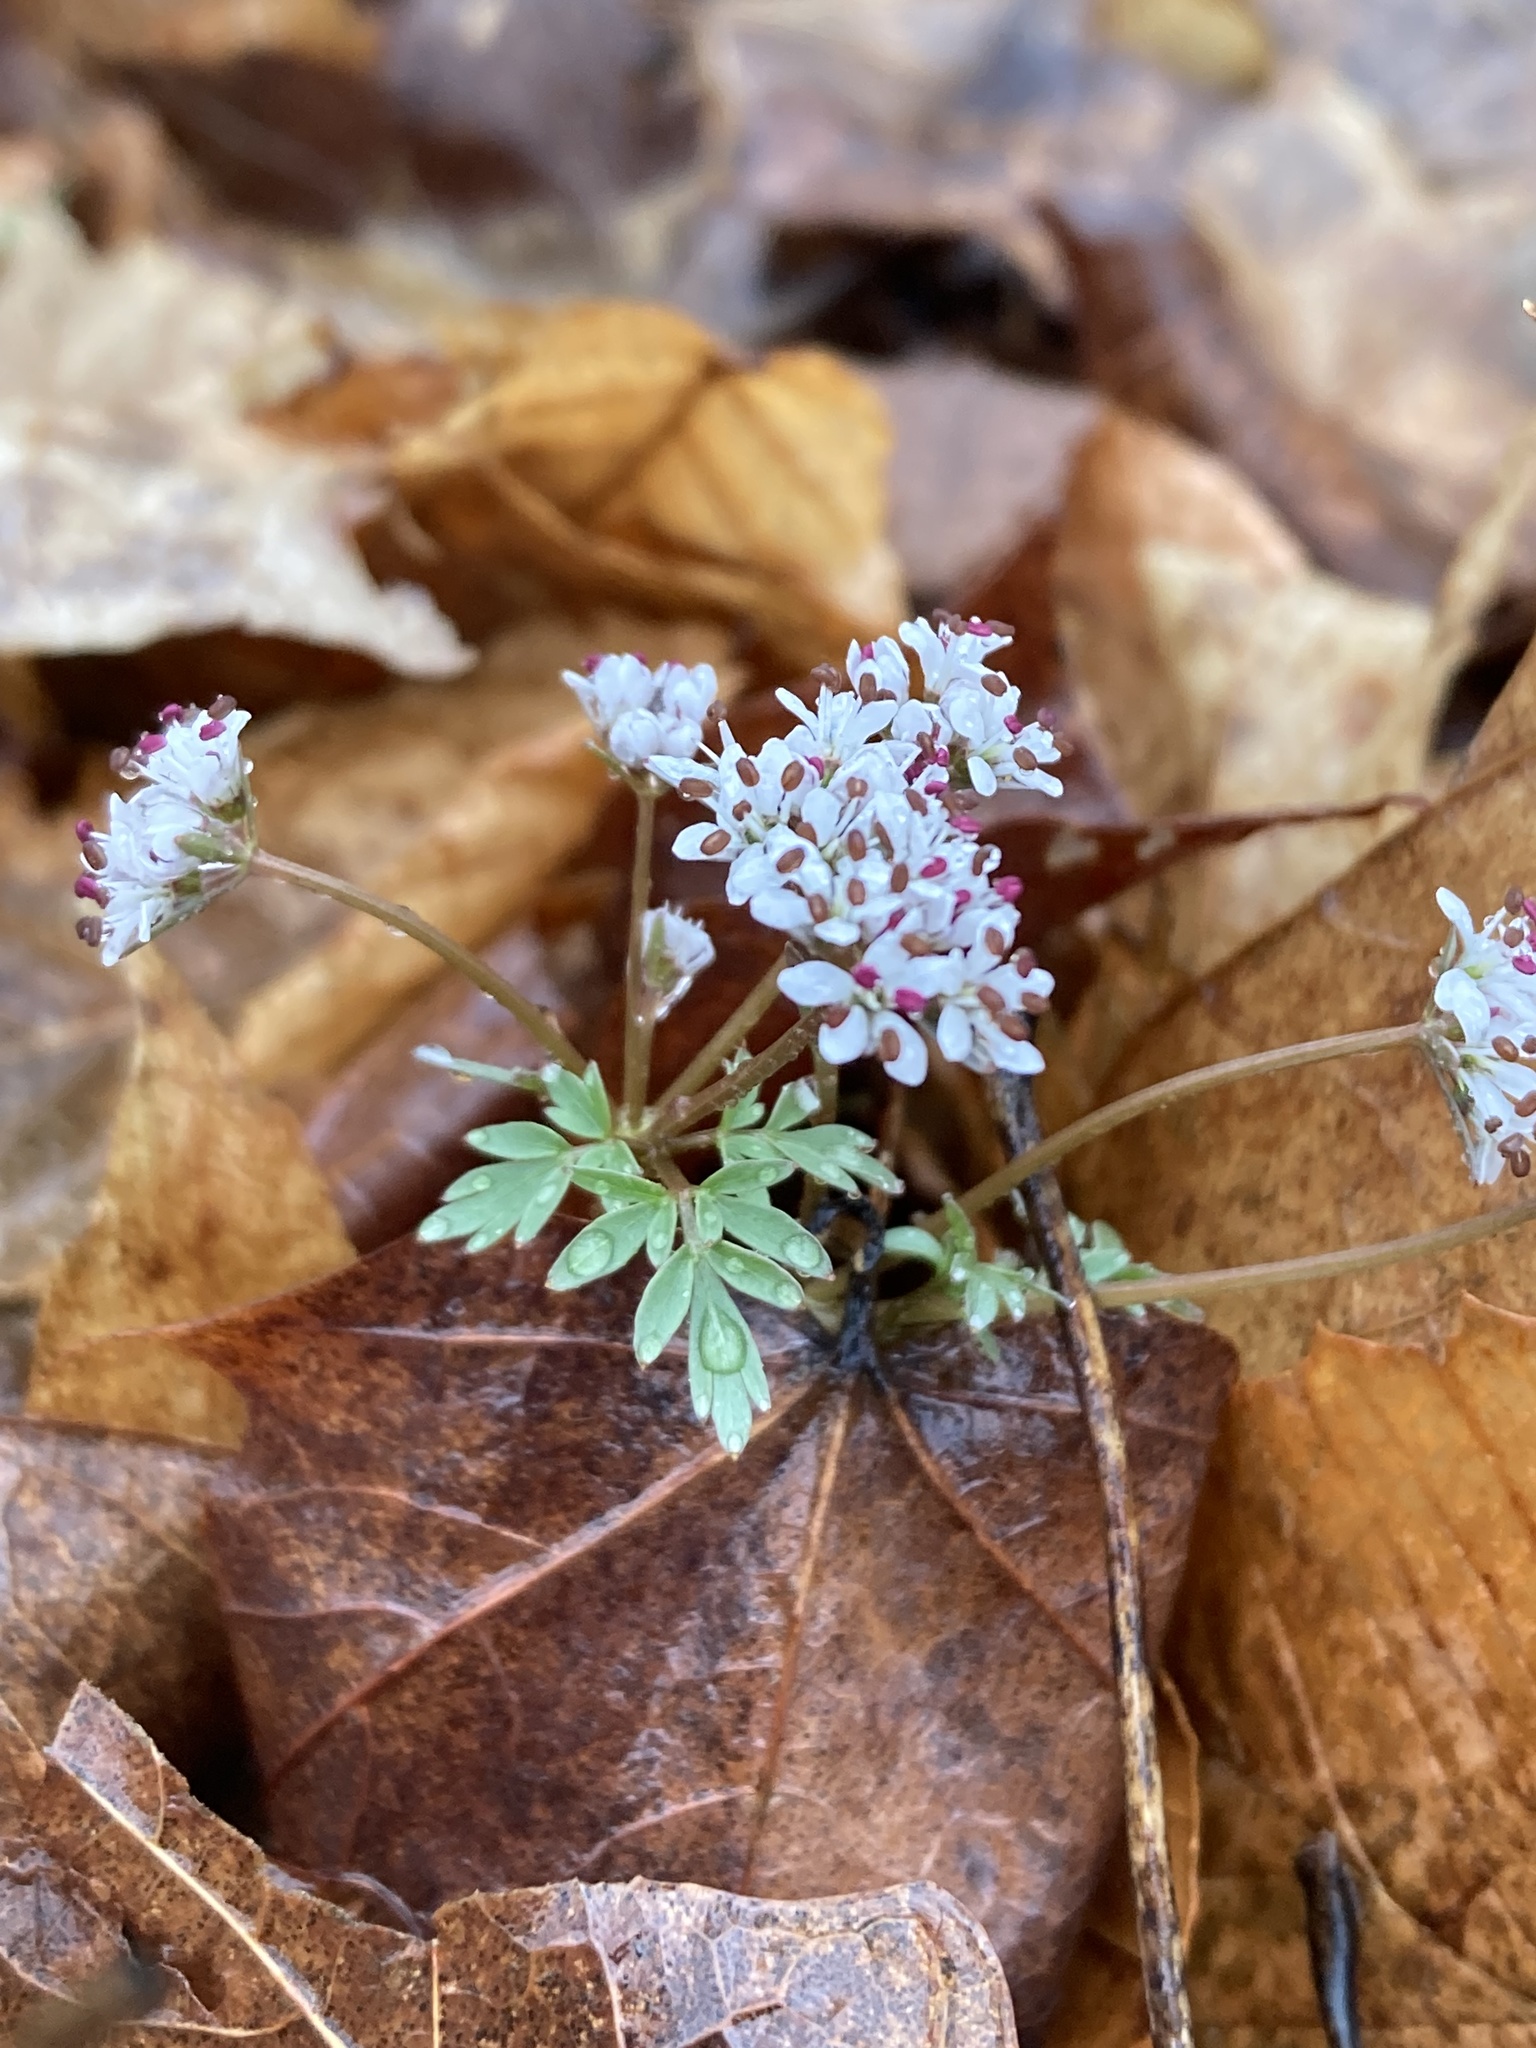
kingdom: Plantae
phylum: Tracheophyta
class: Magnoliopsida
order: Apiales
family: Apiaceae
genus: Erigenia
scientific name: Erigenia bulbosa
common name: Pepper-and-salt
